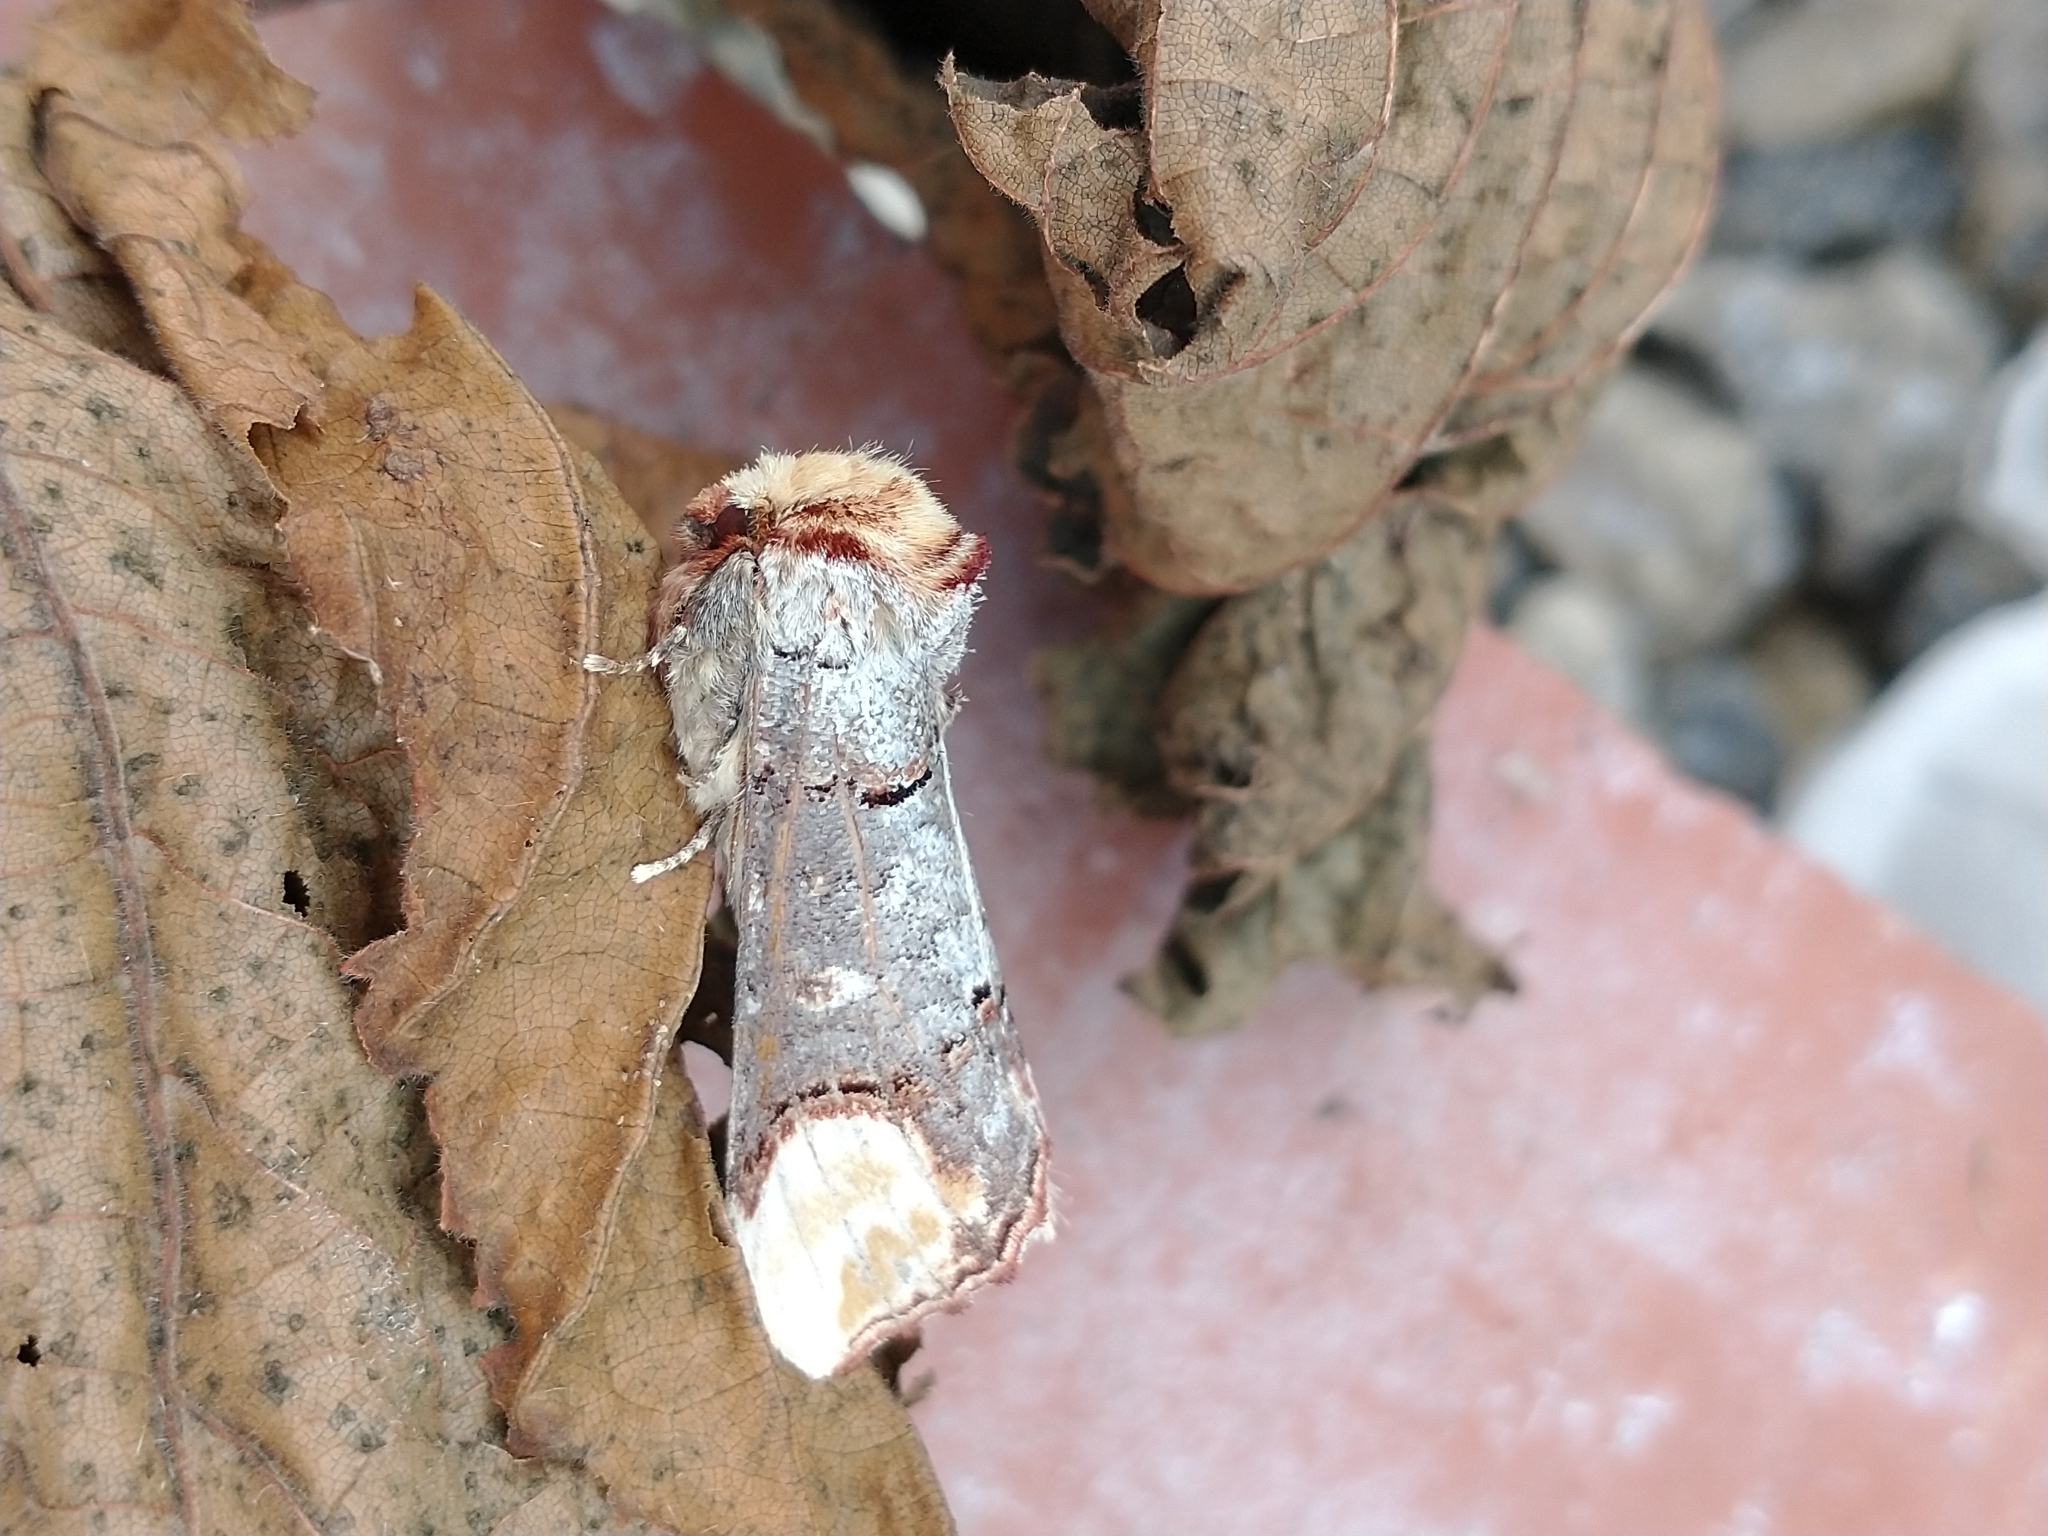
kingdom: Animalia
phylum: Arthropoda
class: Insecta
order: Lepidoptera
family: Notodontidae
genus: Phalera
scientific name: Phalera bucephala
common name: Buff-tip
